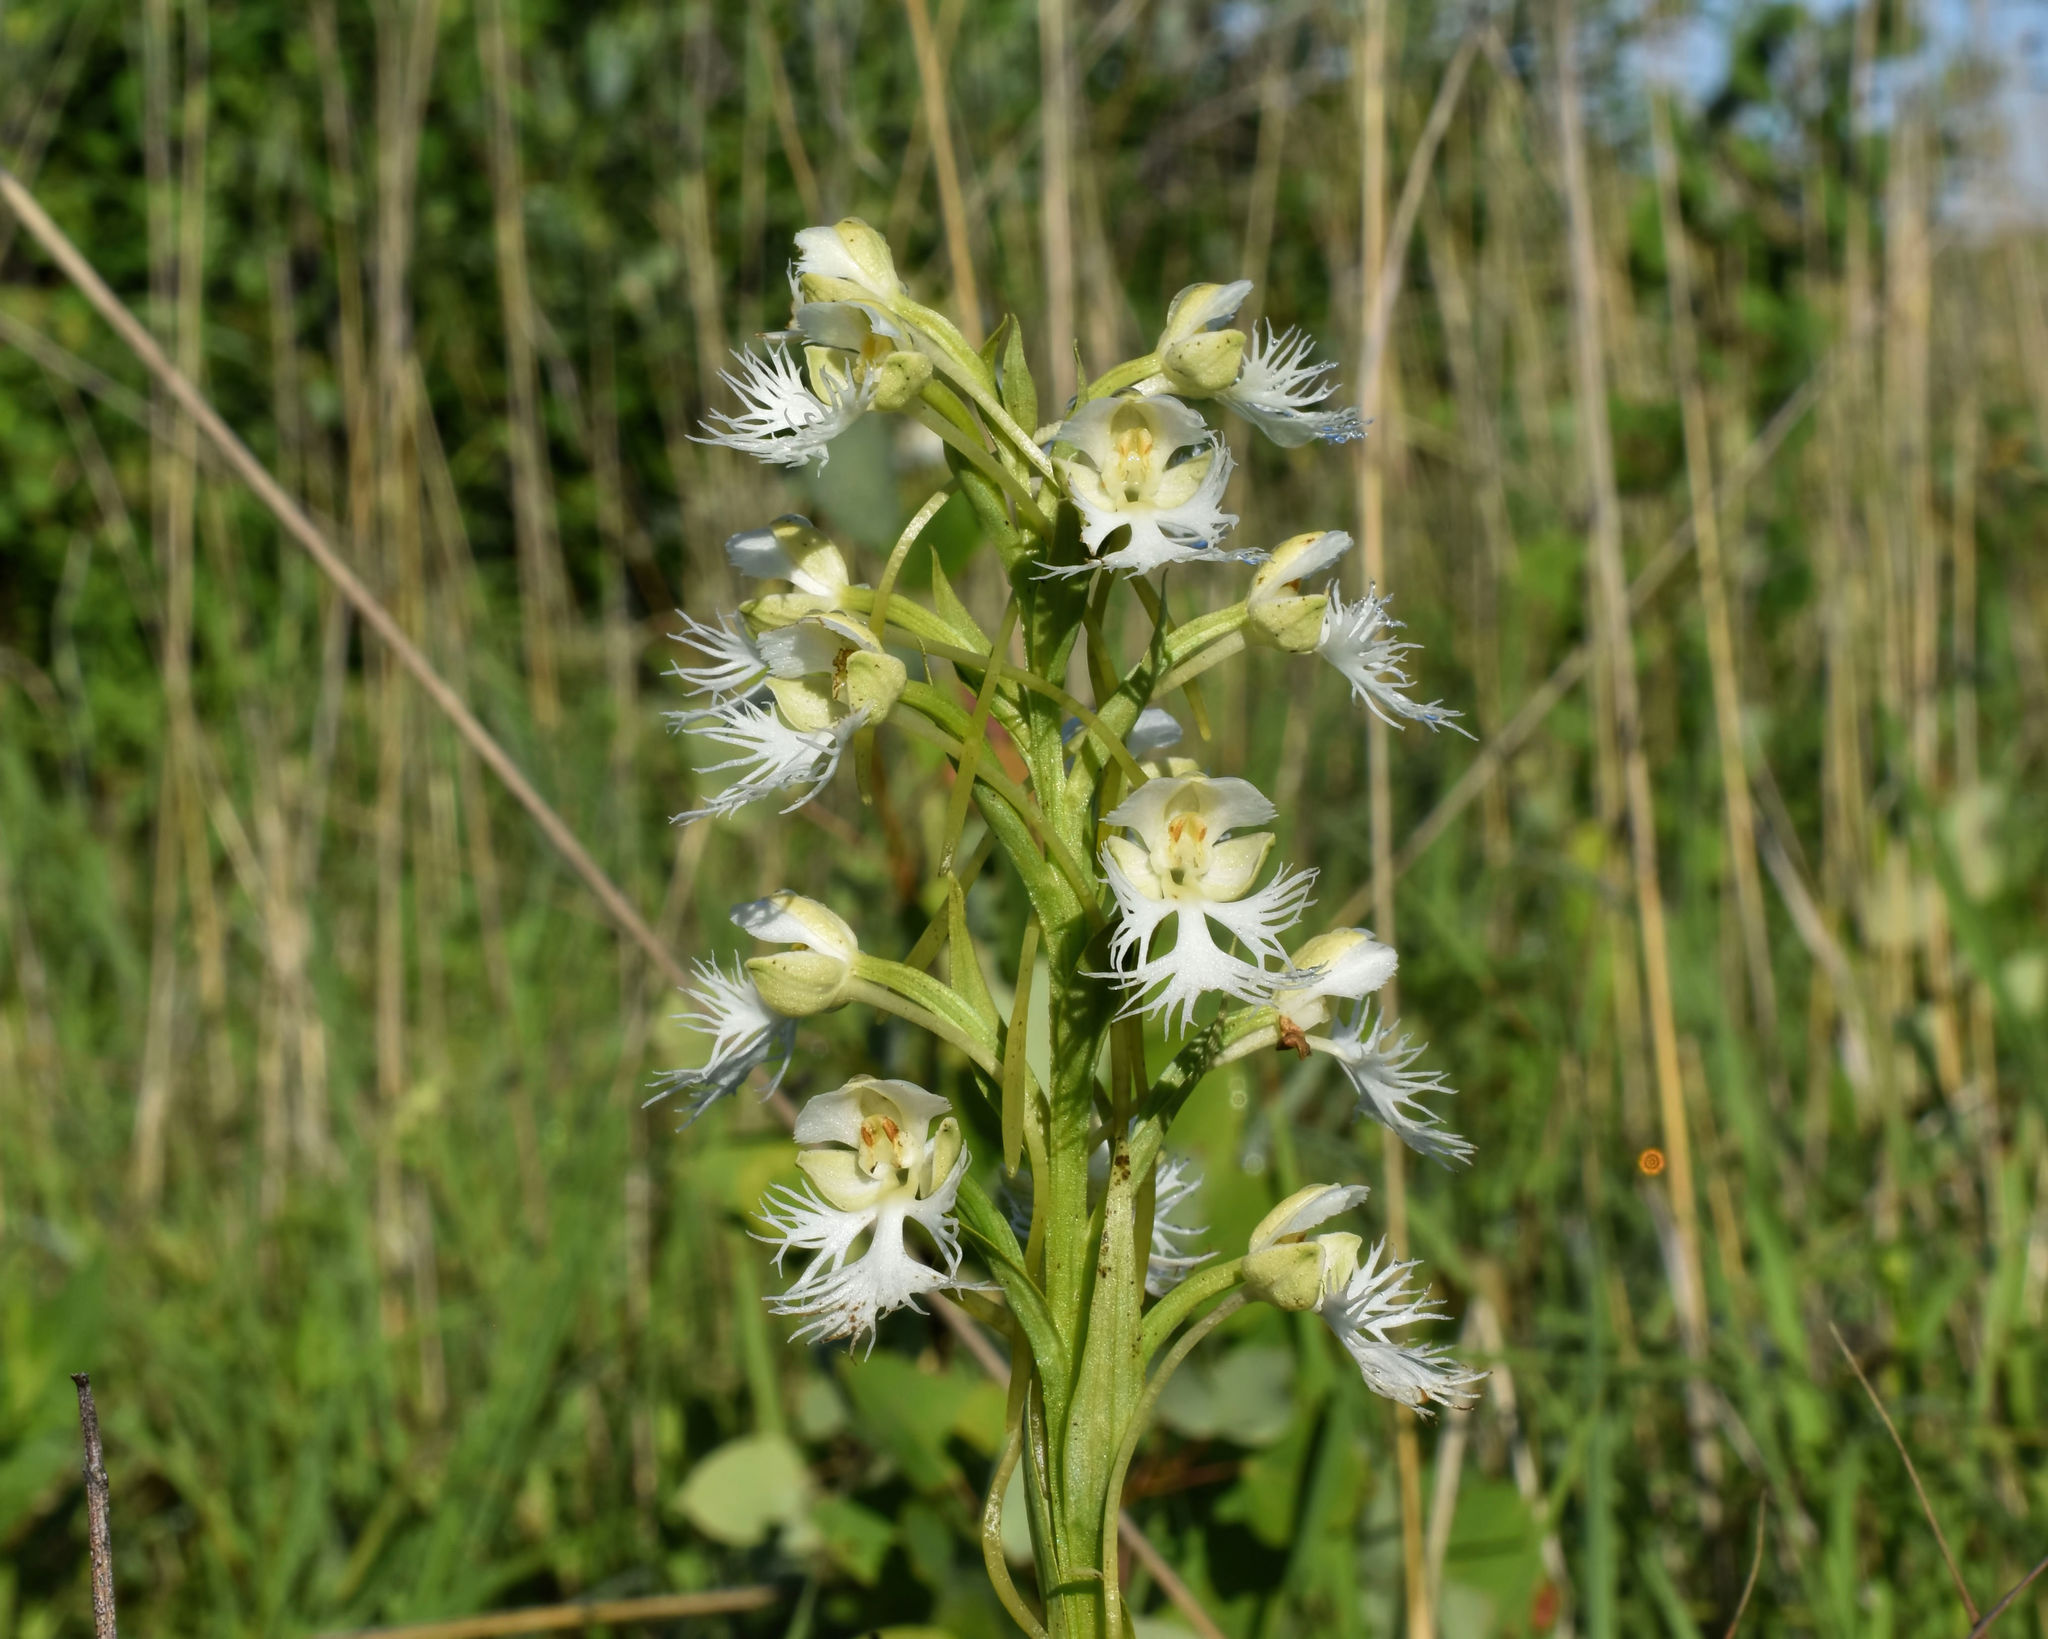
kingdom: Plantae
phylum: Tracheophyta
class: Liliopsida
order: Asparagales
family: Orchidaceae
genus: Platanthera
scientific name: Platanthera leucophaea
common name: Eastern prairie white-fringed orchid
